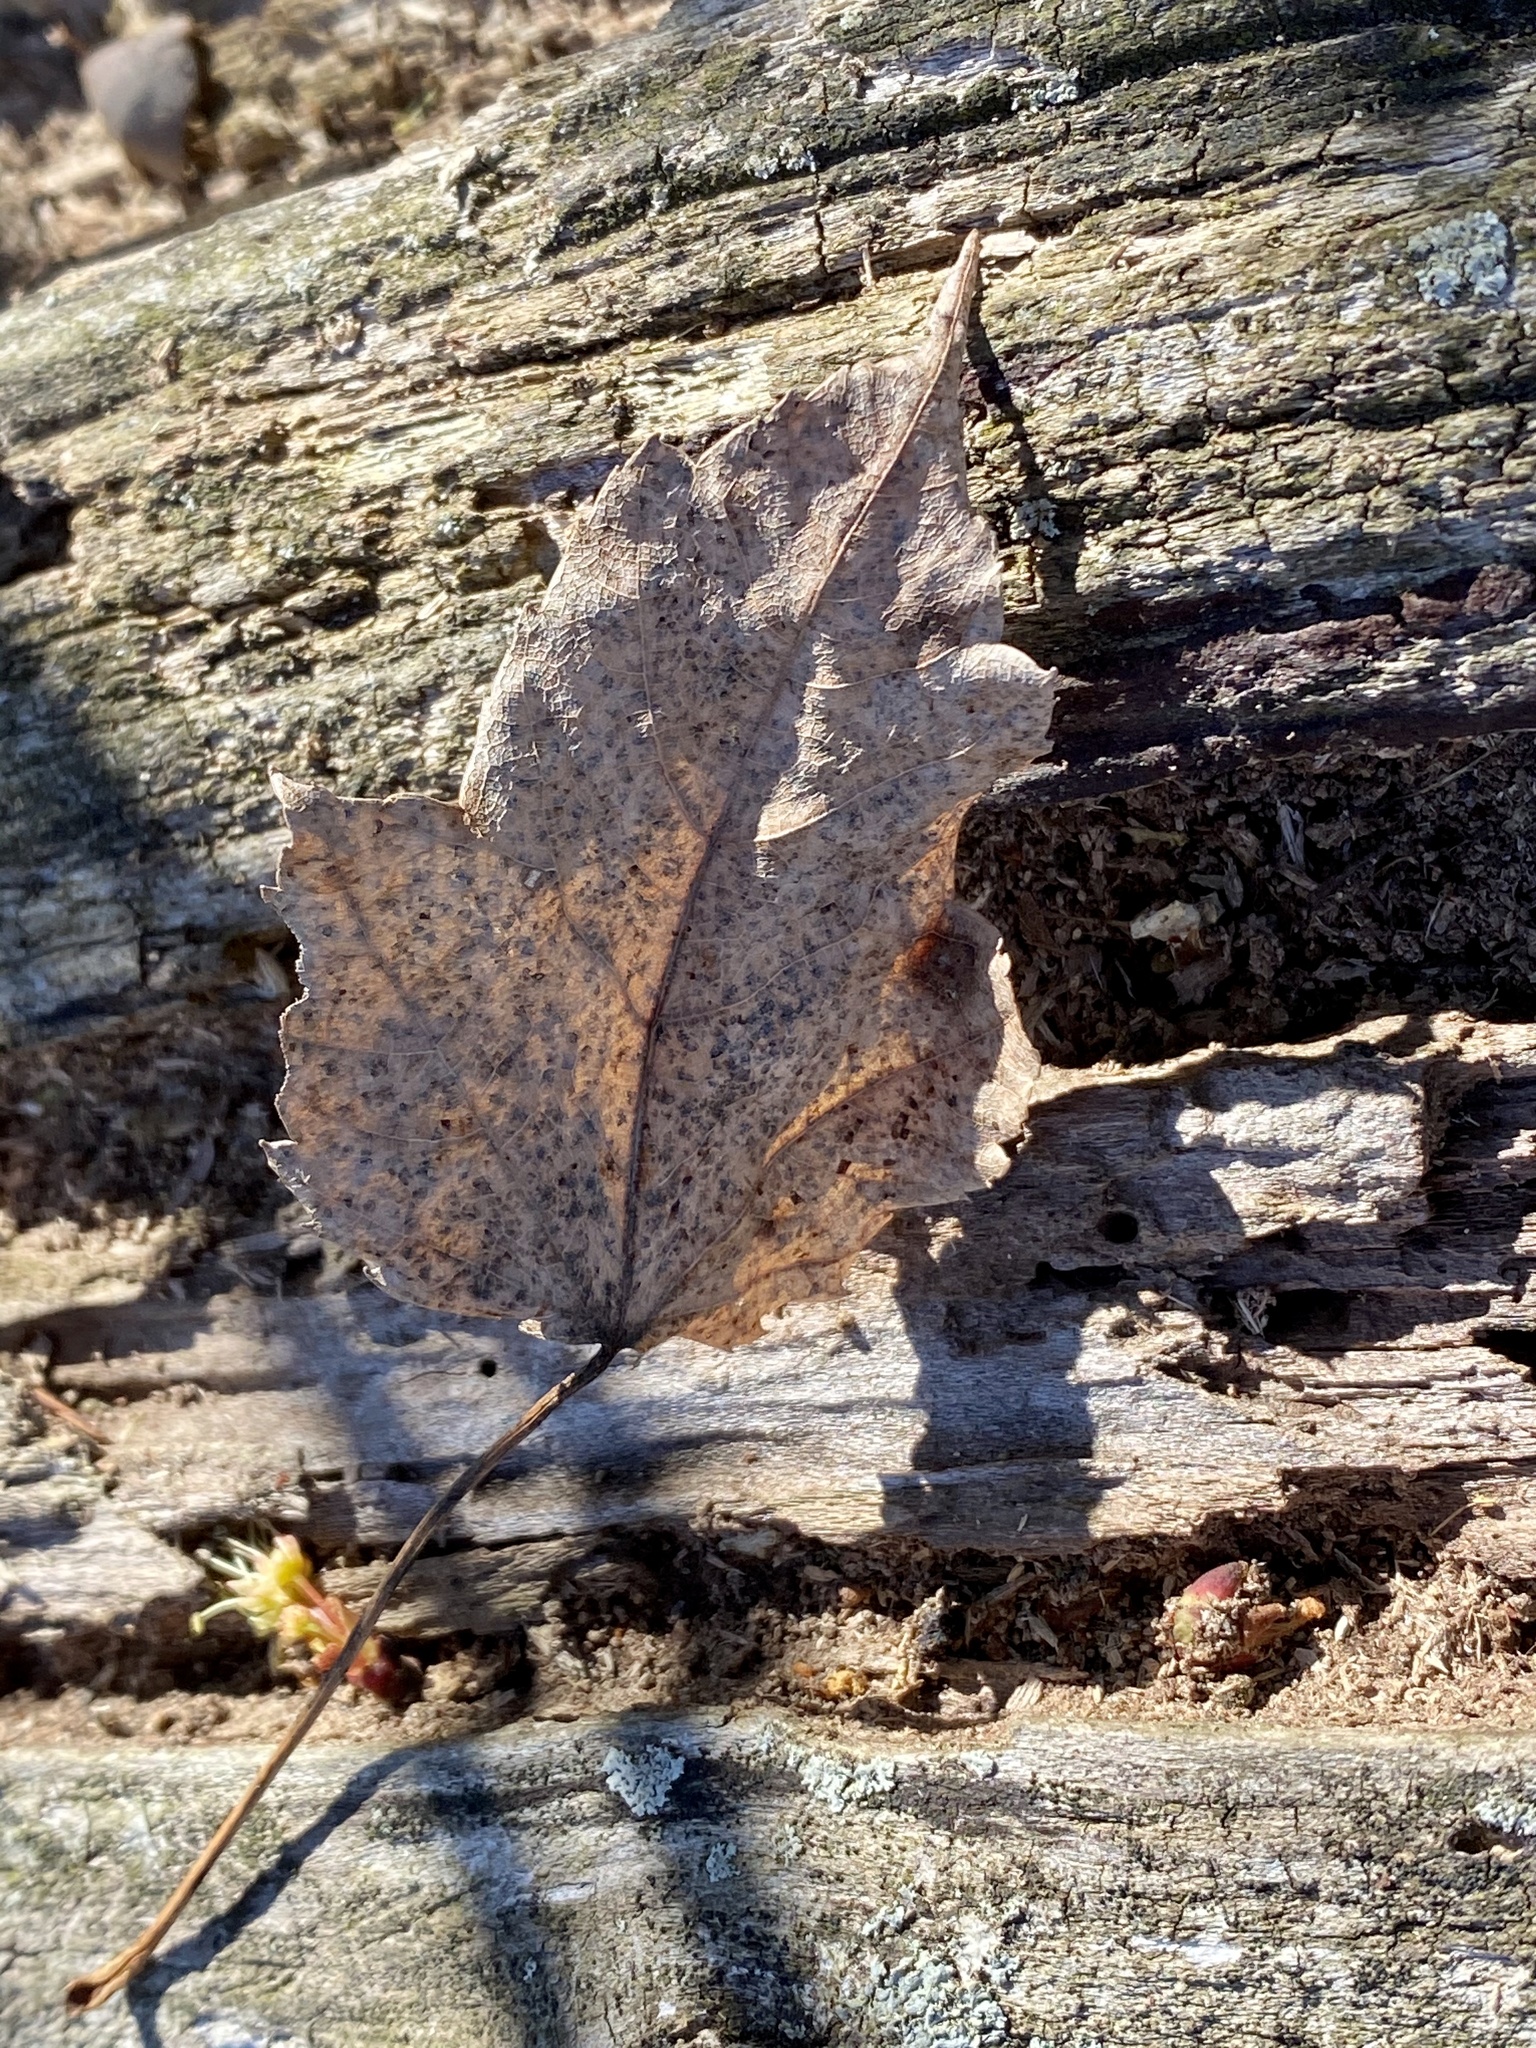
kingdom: Plantae
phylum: Tracheophyta
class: Magnoliopsida
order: Sapindales
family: Sapindaceae
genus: Acer
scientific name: Acer rubrum
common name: Red maple
